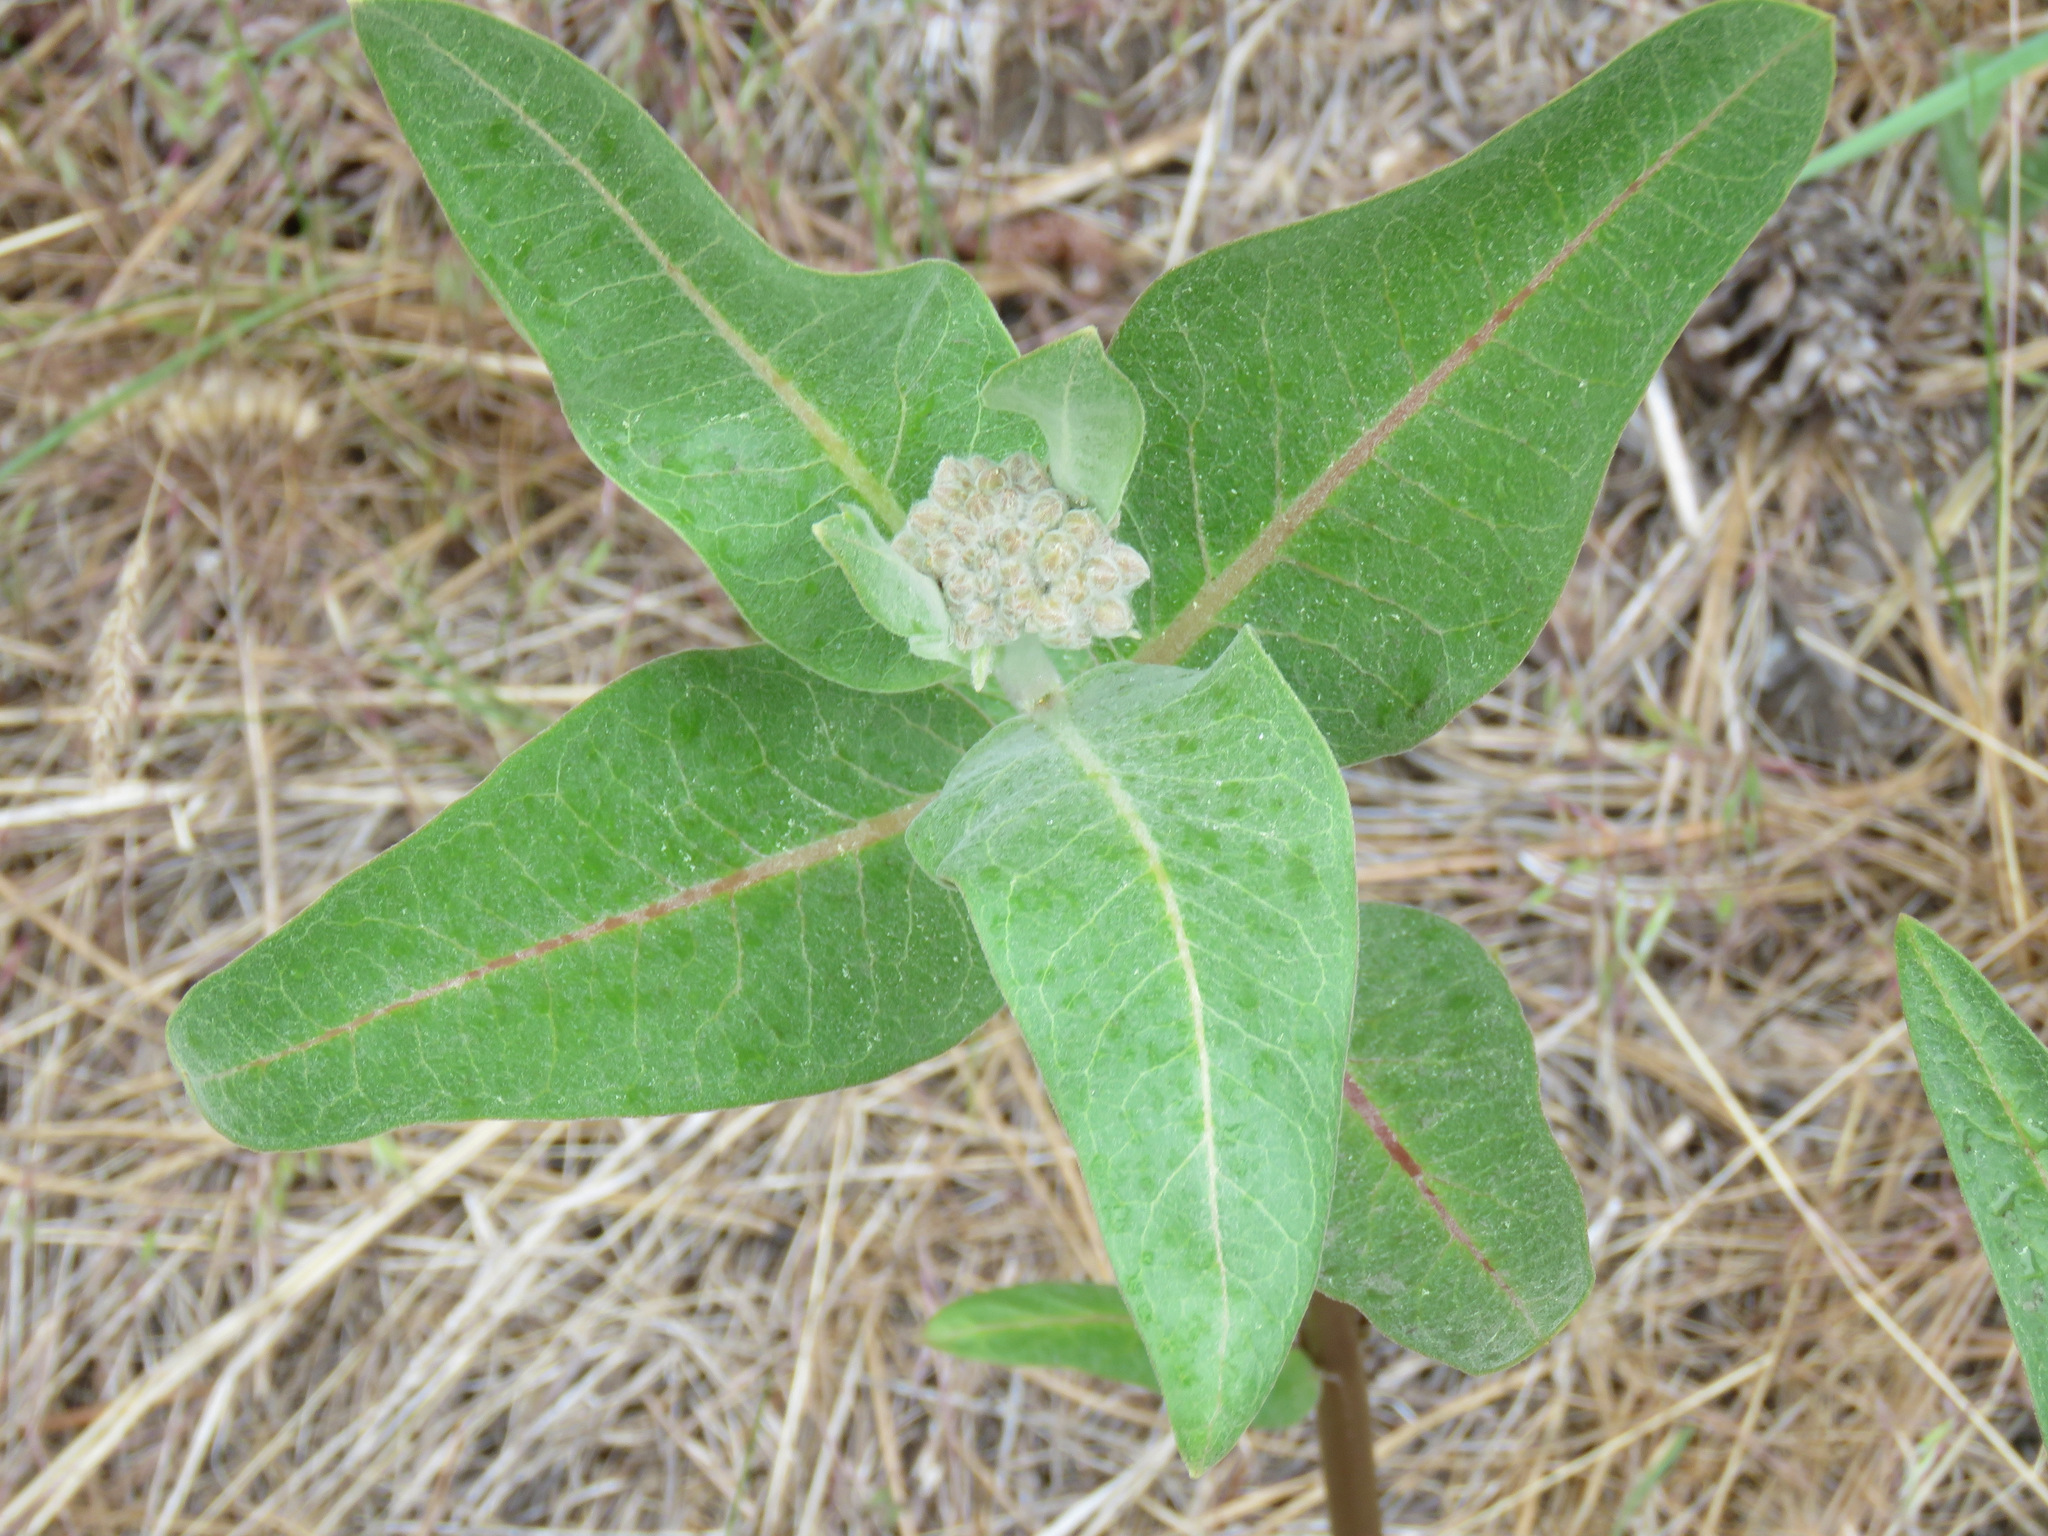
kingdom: Plantae
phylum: Tracheophyta
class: Magnoliopsida
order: Gentianales
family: Apocynaceae
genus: Asclepias
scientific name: Asclepias speciosa
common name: Showy milkweed
